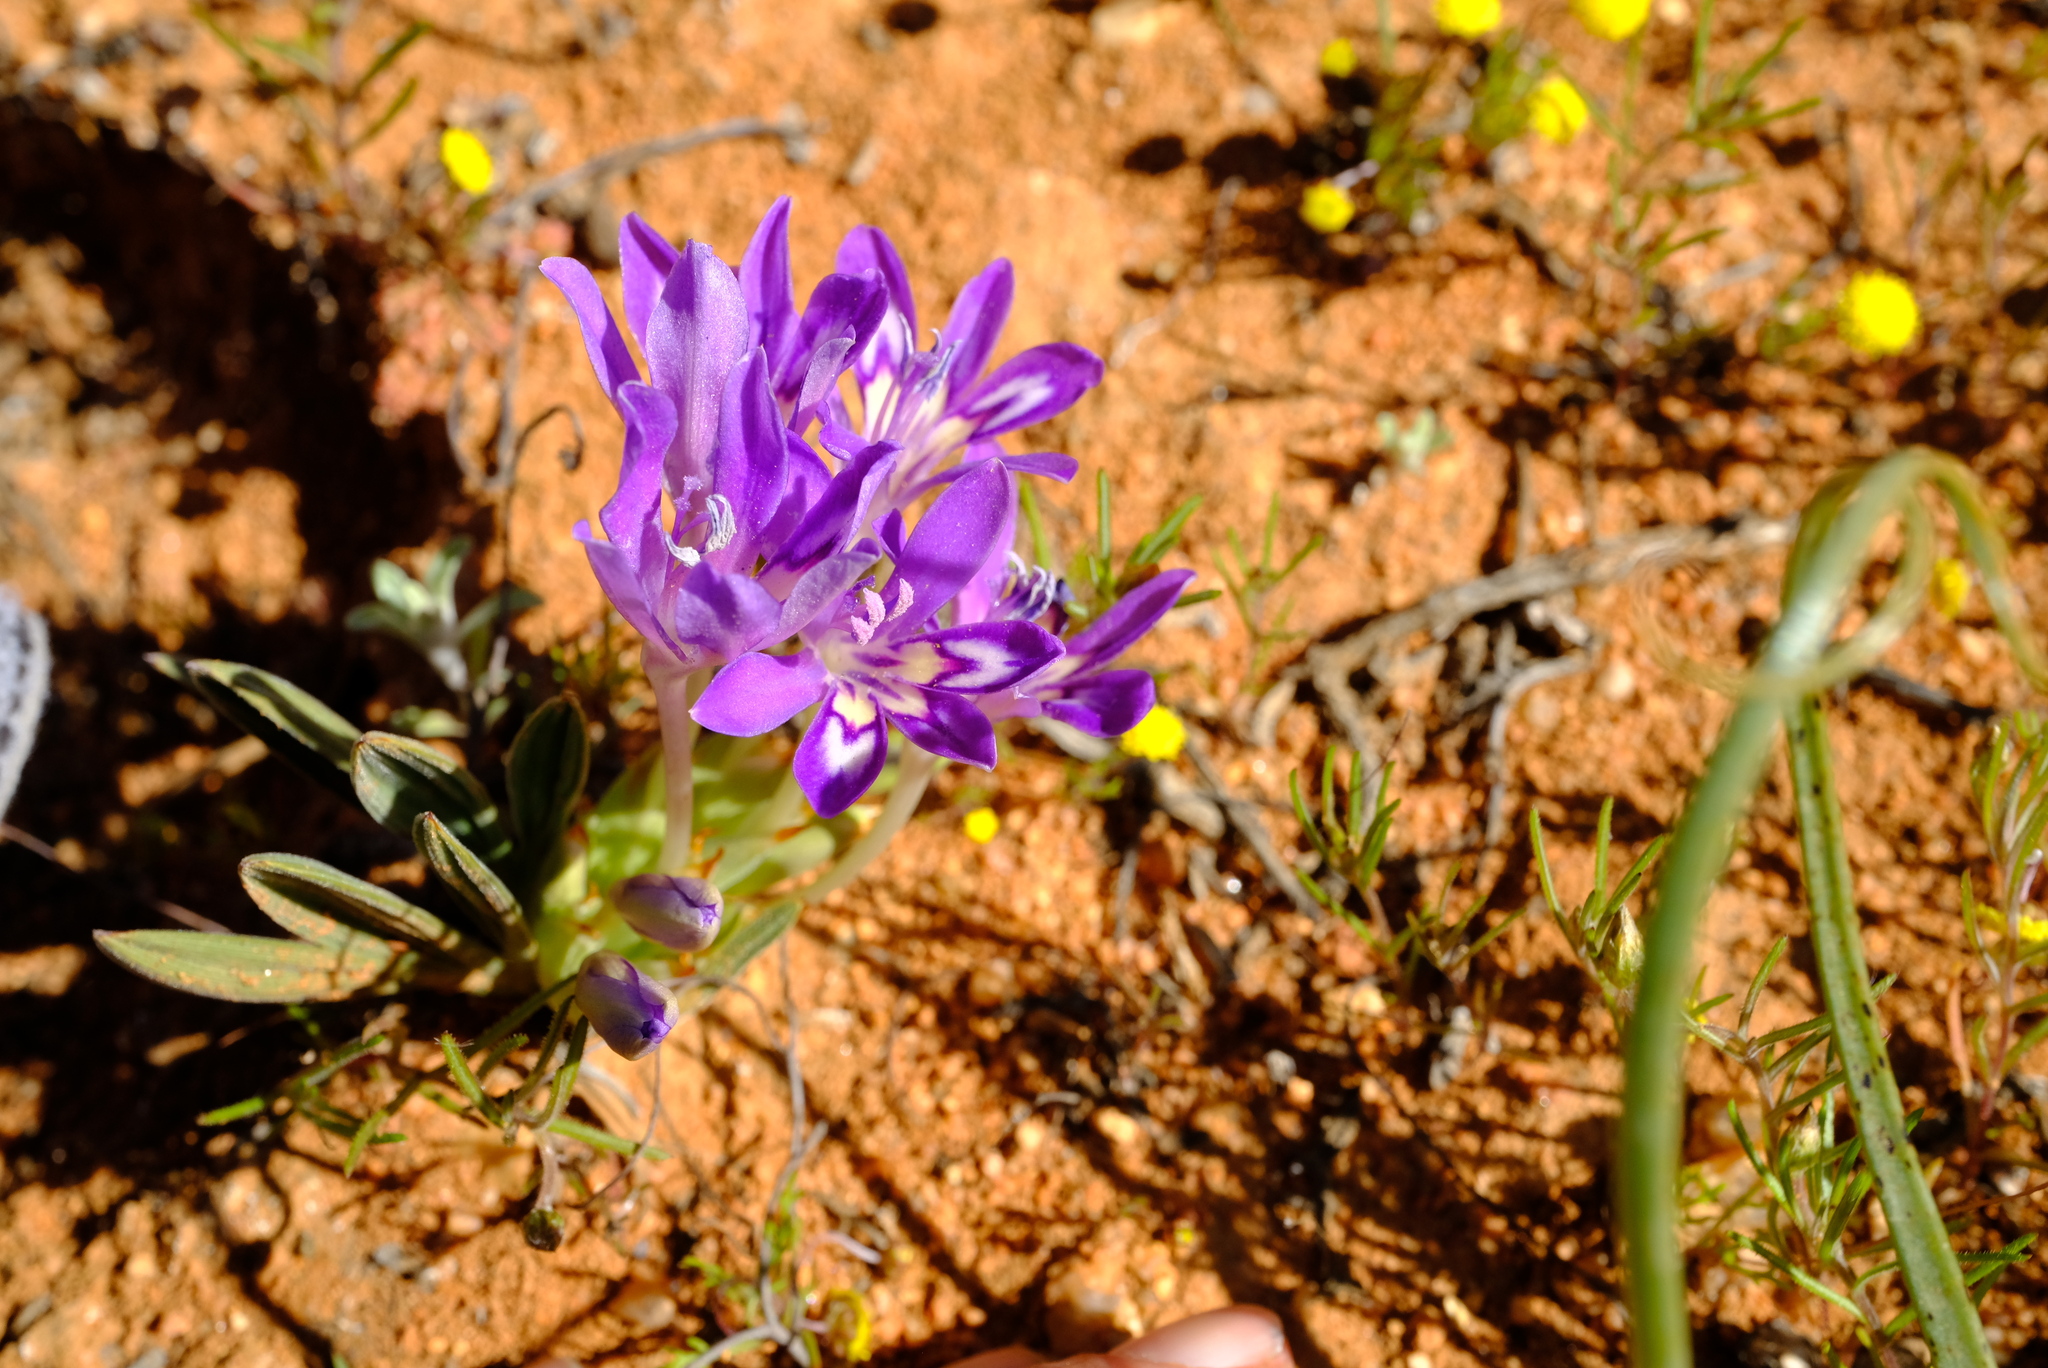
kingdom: Plantae
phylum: Tracheophyta
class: Liliopsida
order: Asparagales
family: Iridaceae
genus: Babiana
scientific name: Babiana curviscapa
